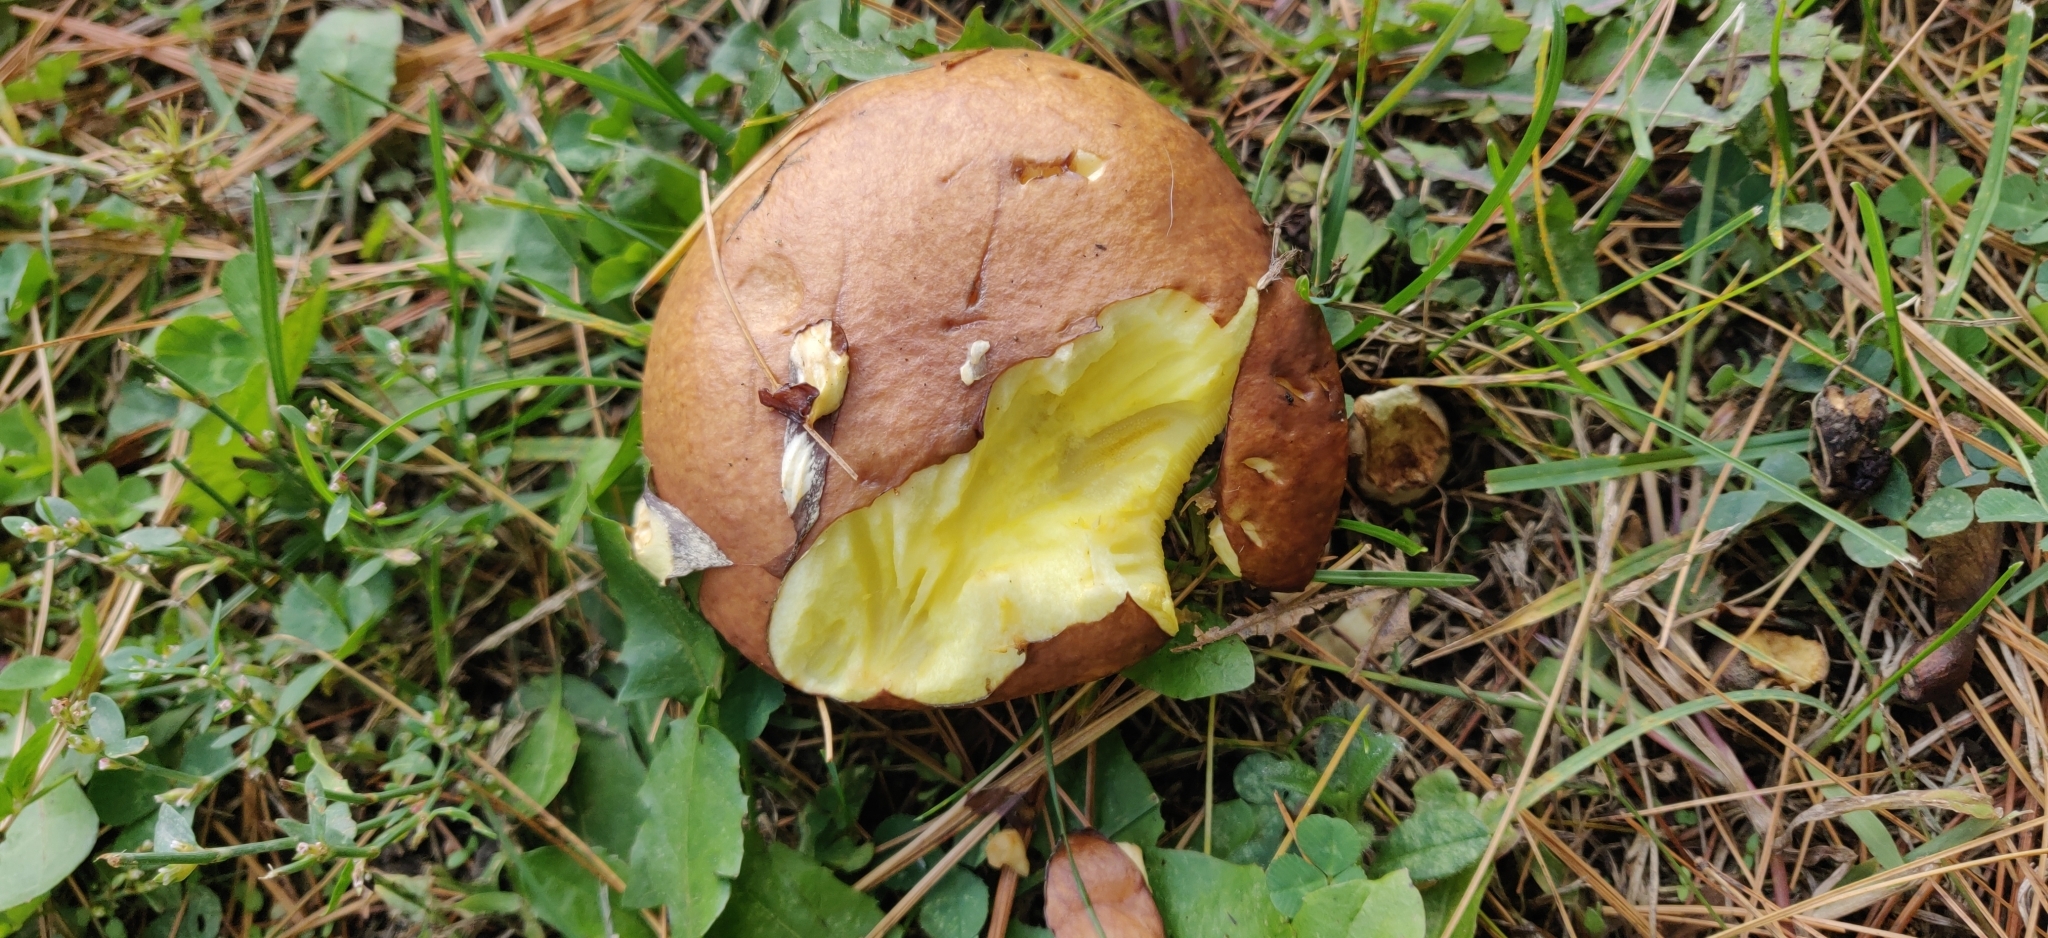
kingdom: Fungi
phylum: Basidiomycota
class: Agaricomycetes
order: Boletales
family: Suillaceae
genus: Suillus
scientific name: Suillus luteus
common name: Slippery jack
